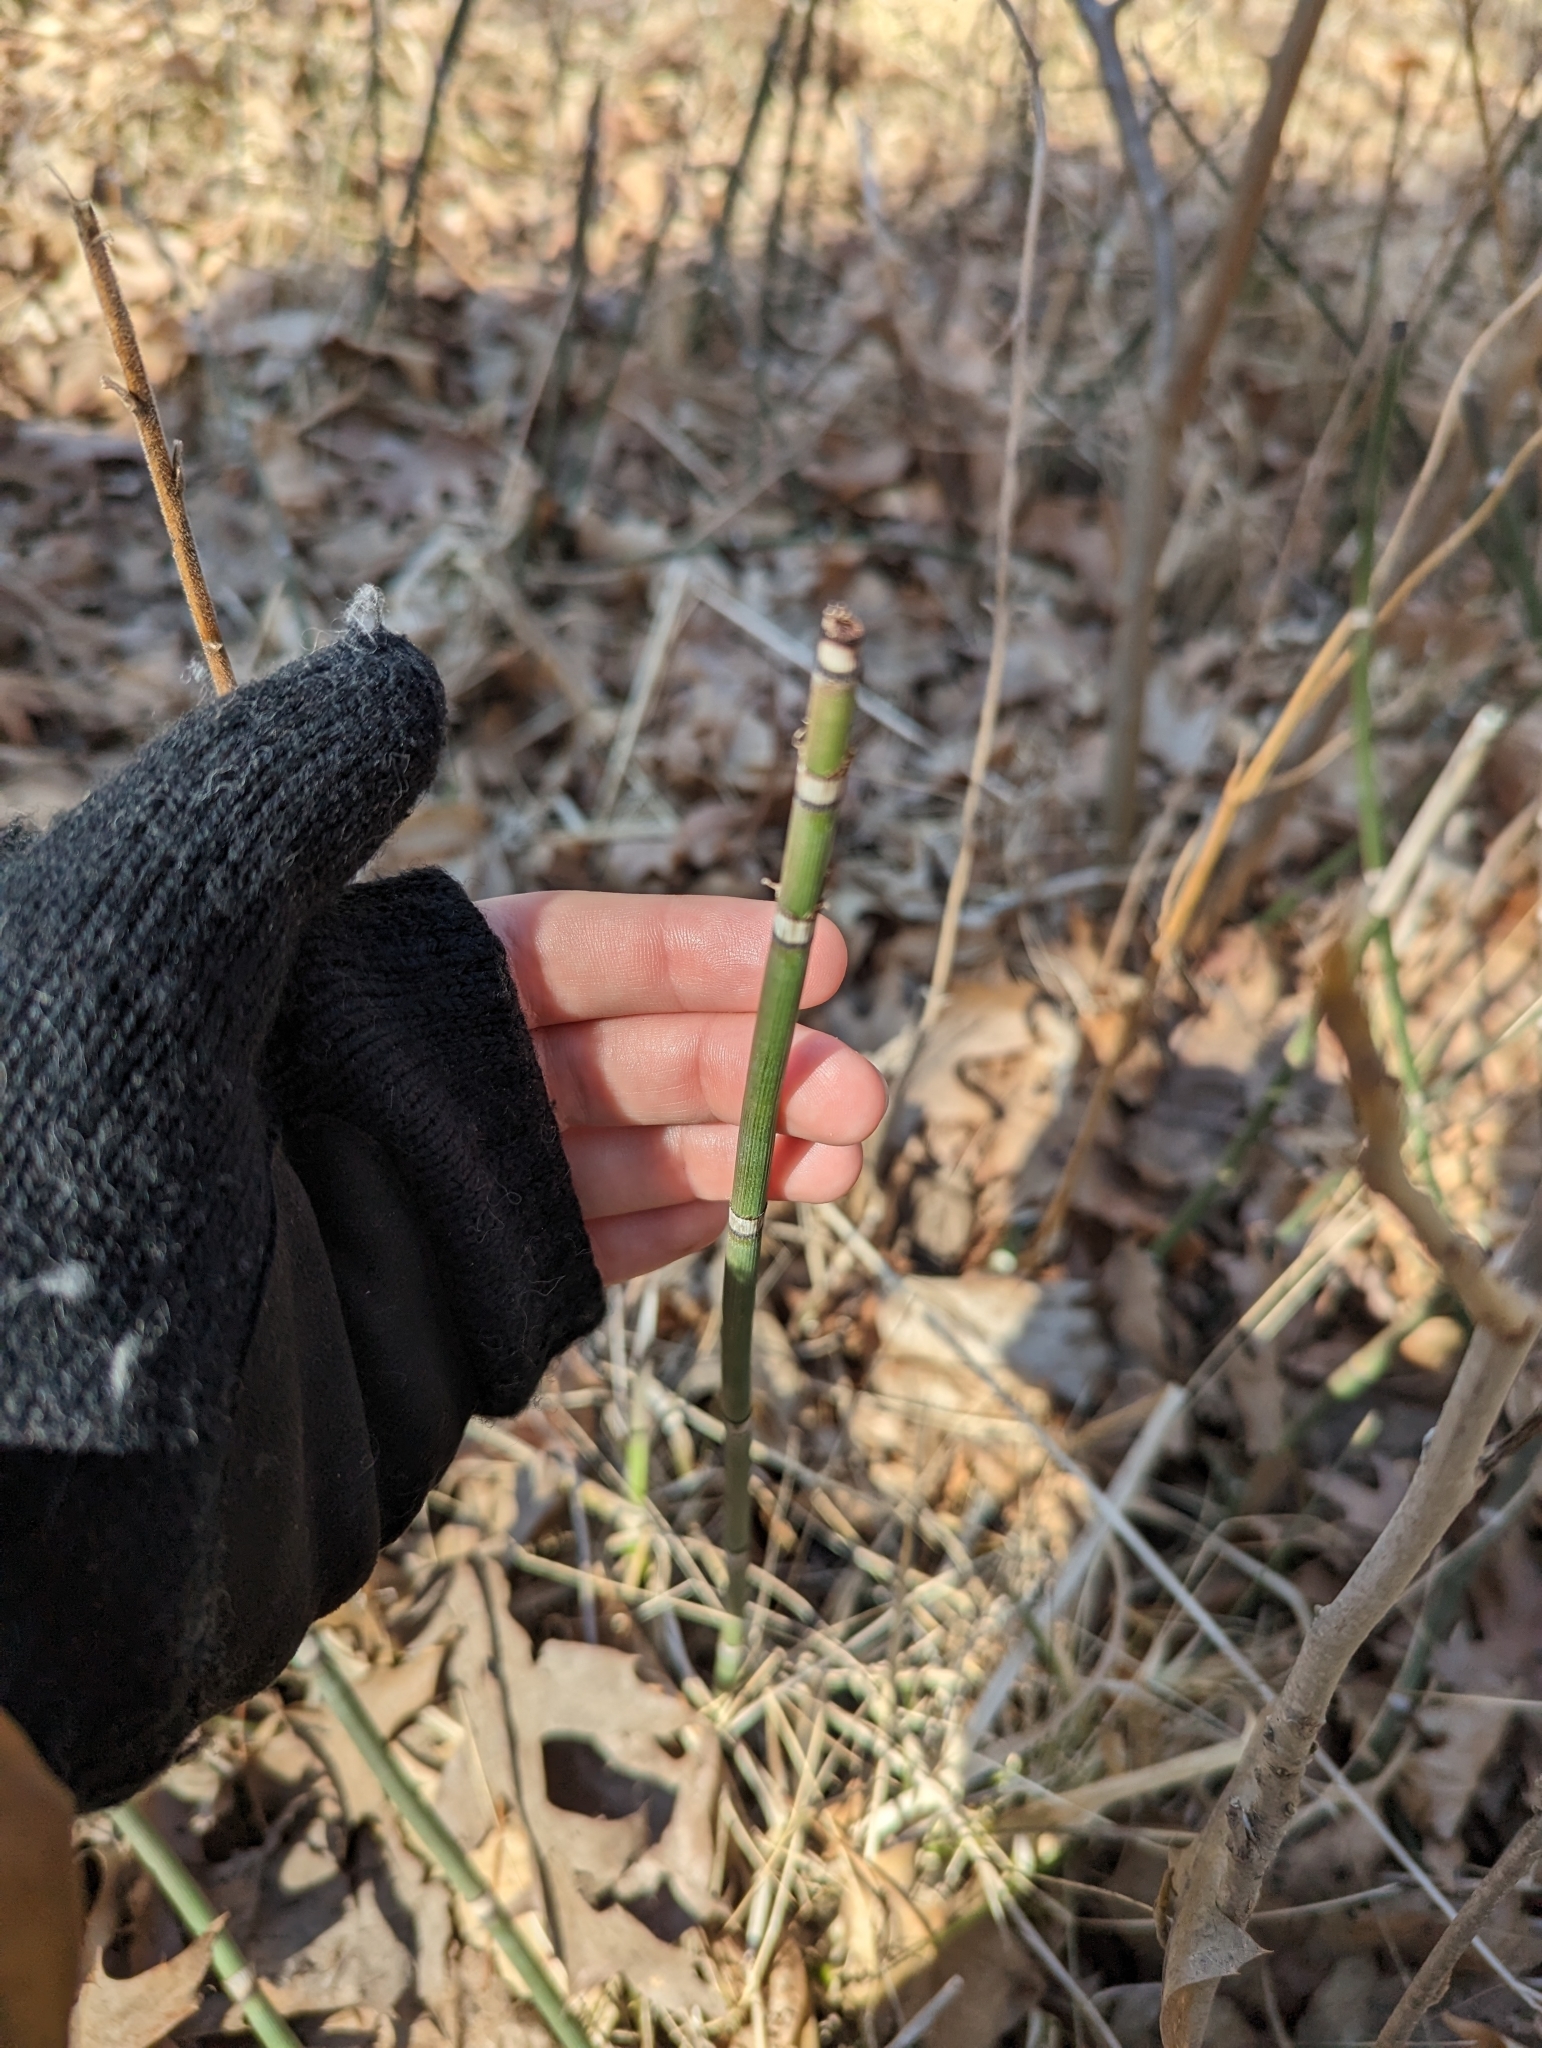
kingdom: Plantae
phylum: Tracheophyta
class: Polypodiopsida
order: Equisetales
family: Equisetaceae
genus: Equisetum
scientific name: Equisetum praealtum
